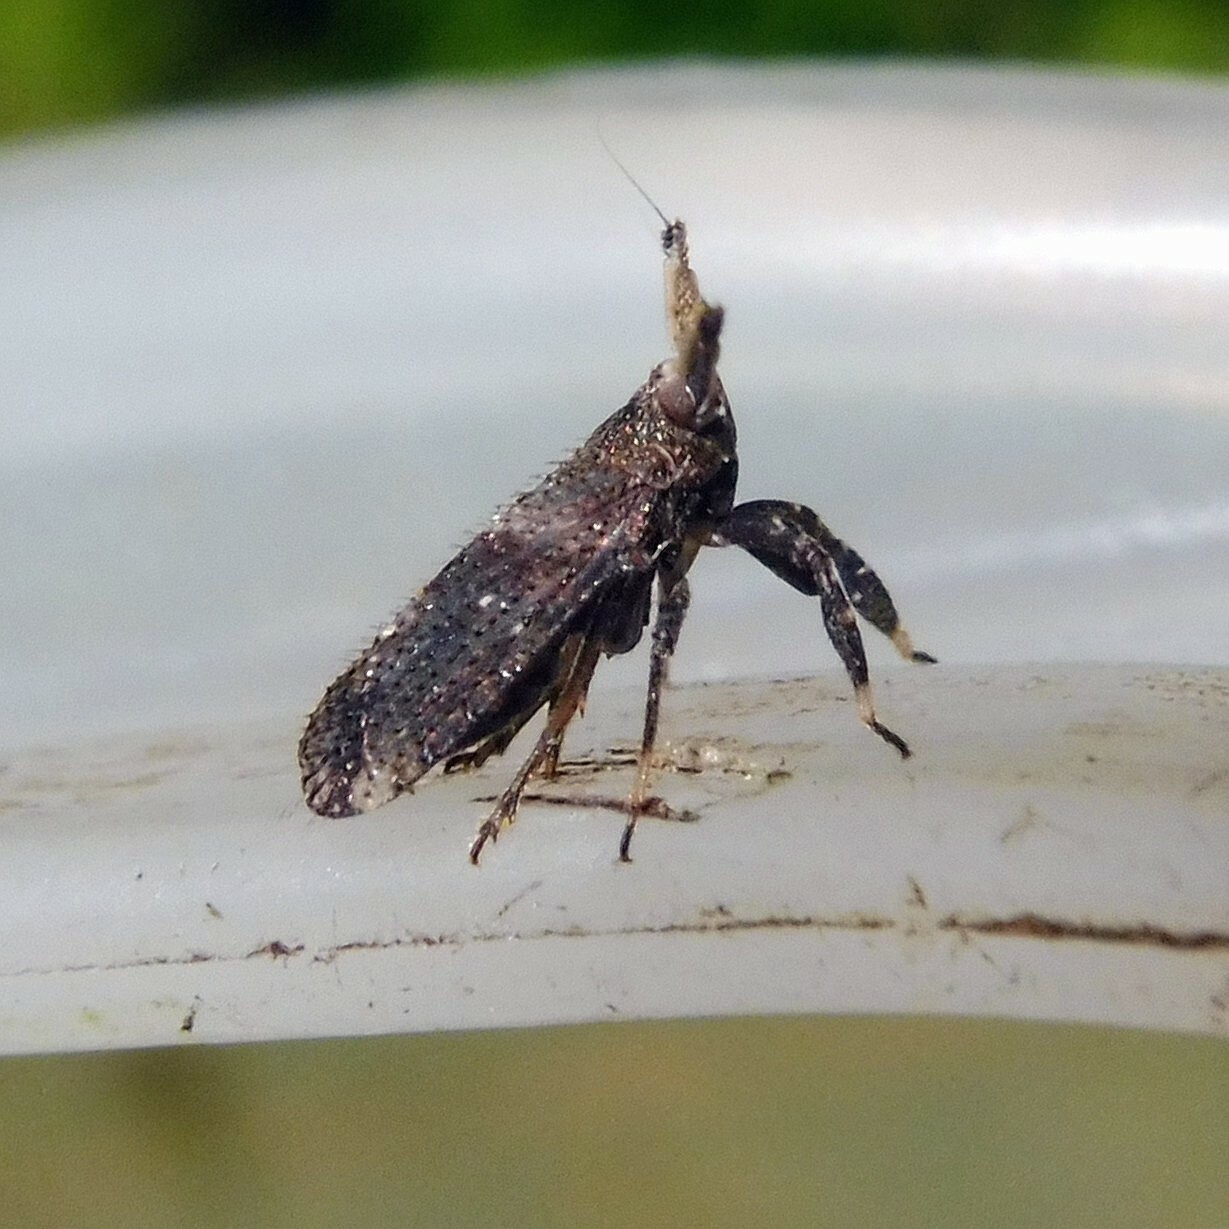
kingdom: Animalia
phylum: Arthropoda
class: Insecta
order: Hemiptera
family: Delphacidae
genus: Asiraca
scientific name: Asiraca clavicornis
